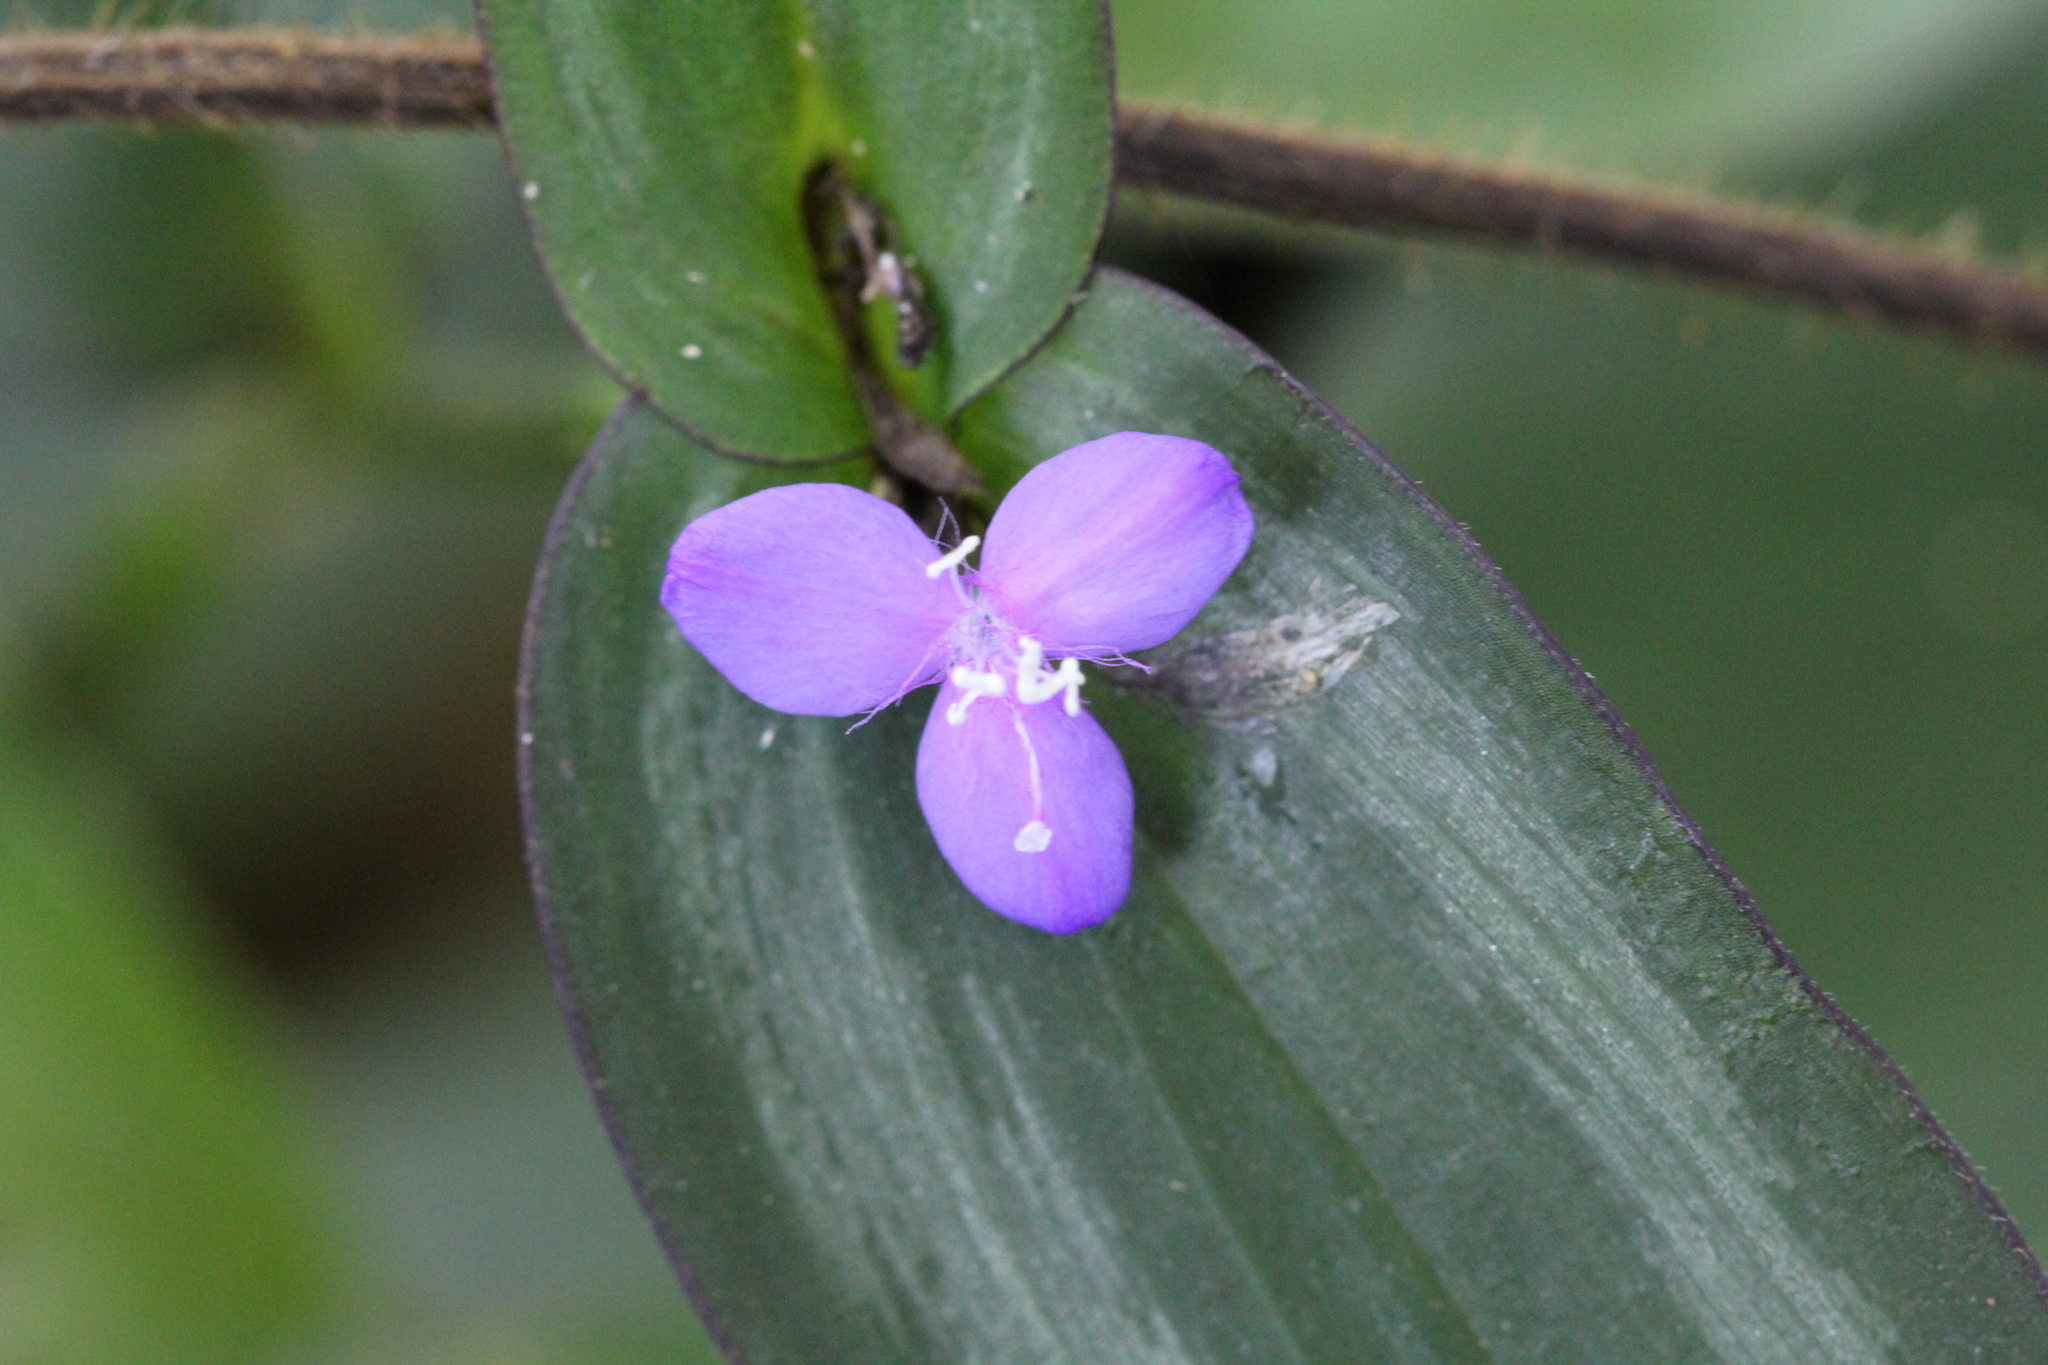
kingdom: Plantae
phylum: Tracheophyta
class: Liliopsida
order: Commelinales
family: Commelinaceae
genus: Tradescantia
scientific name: Tradescantia zebrina
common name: Inchplant
